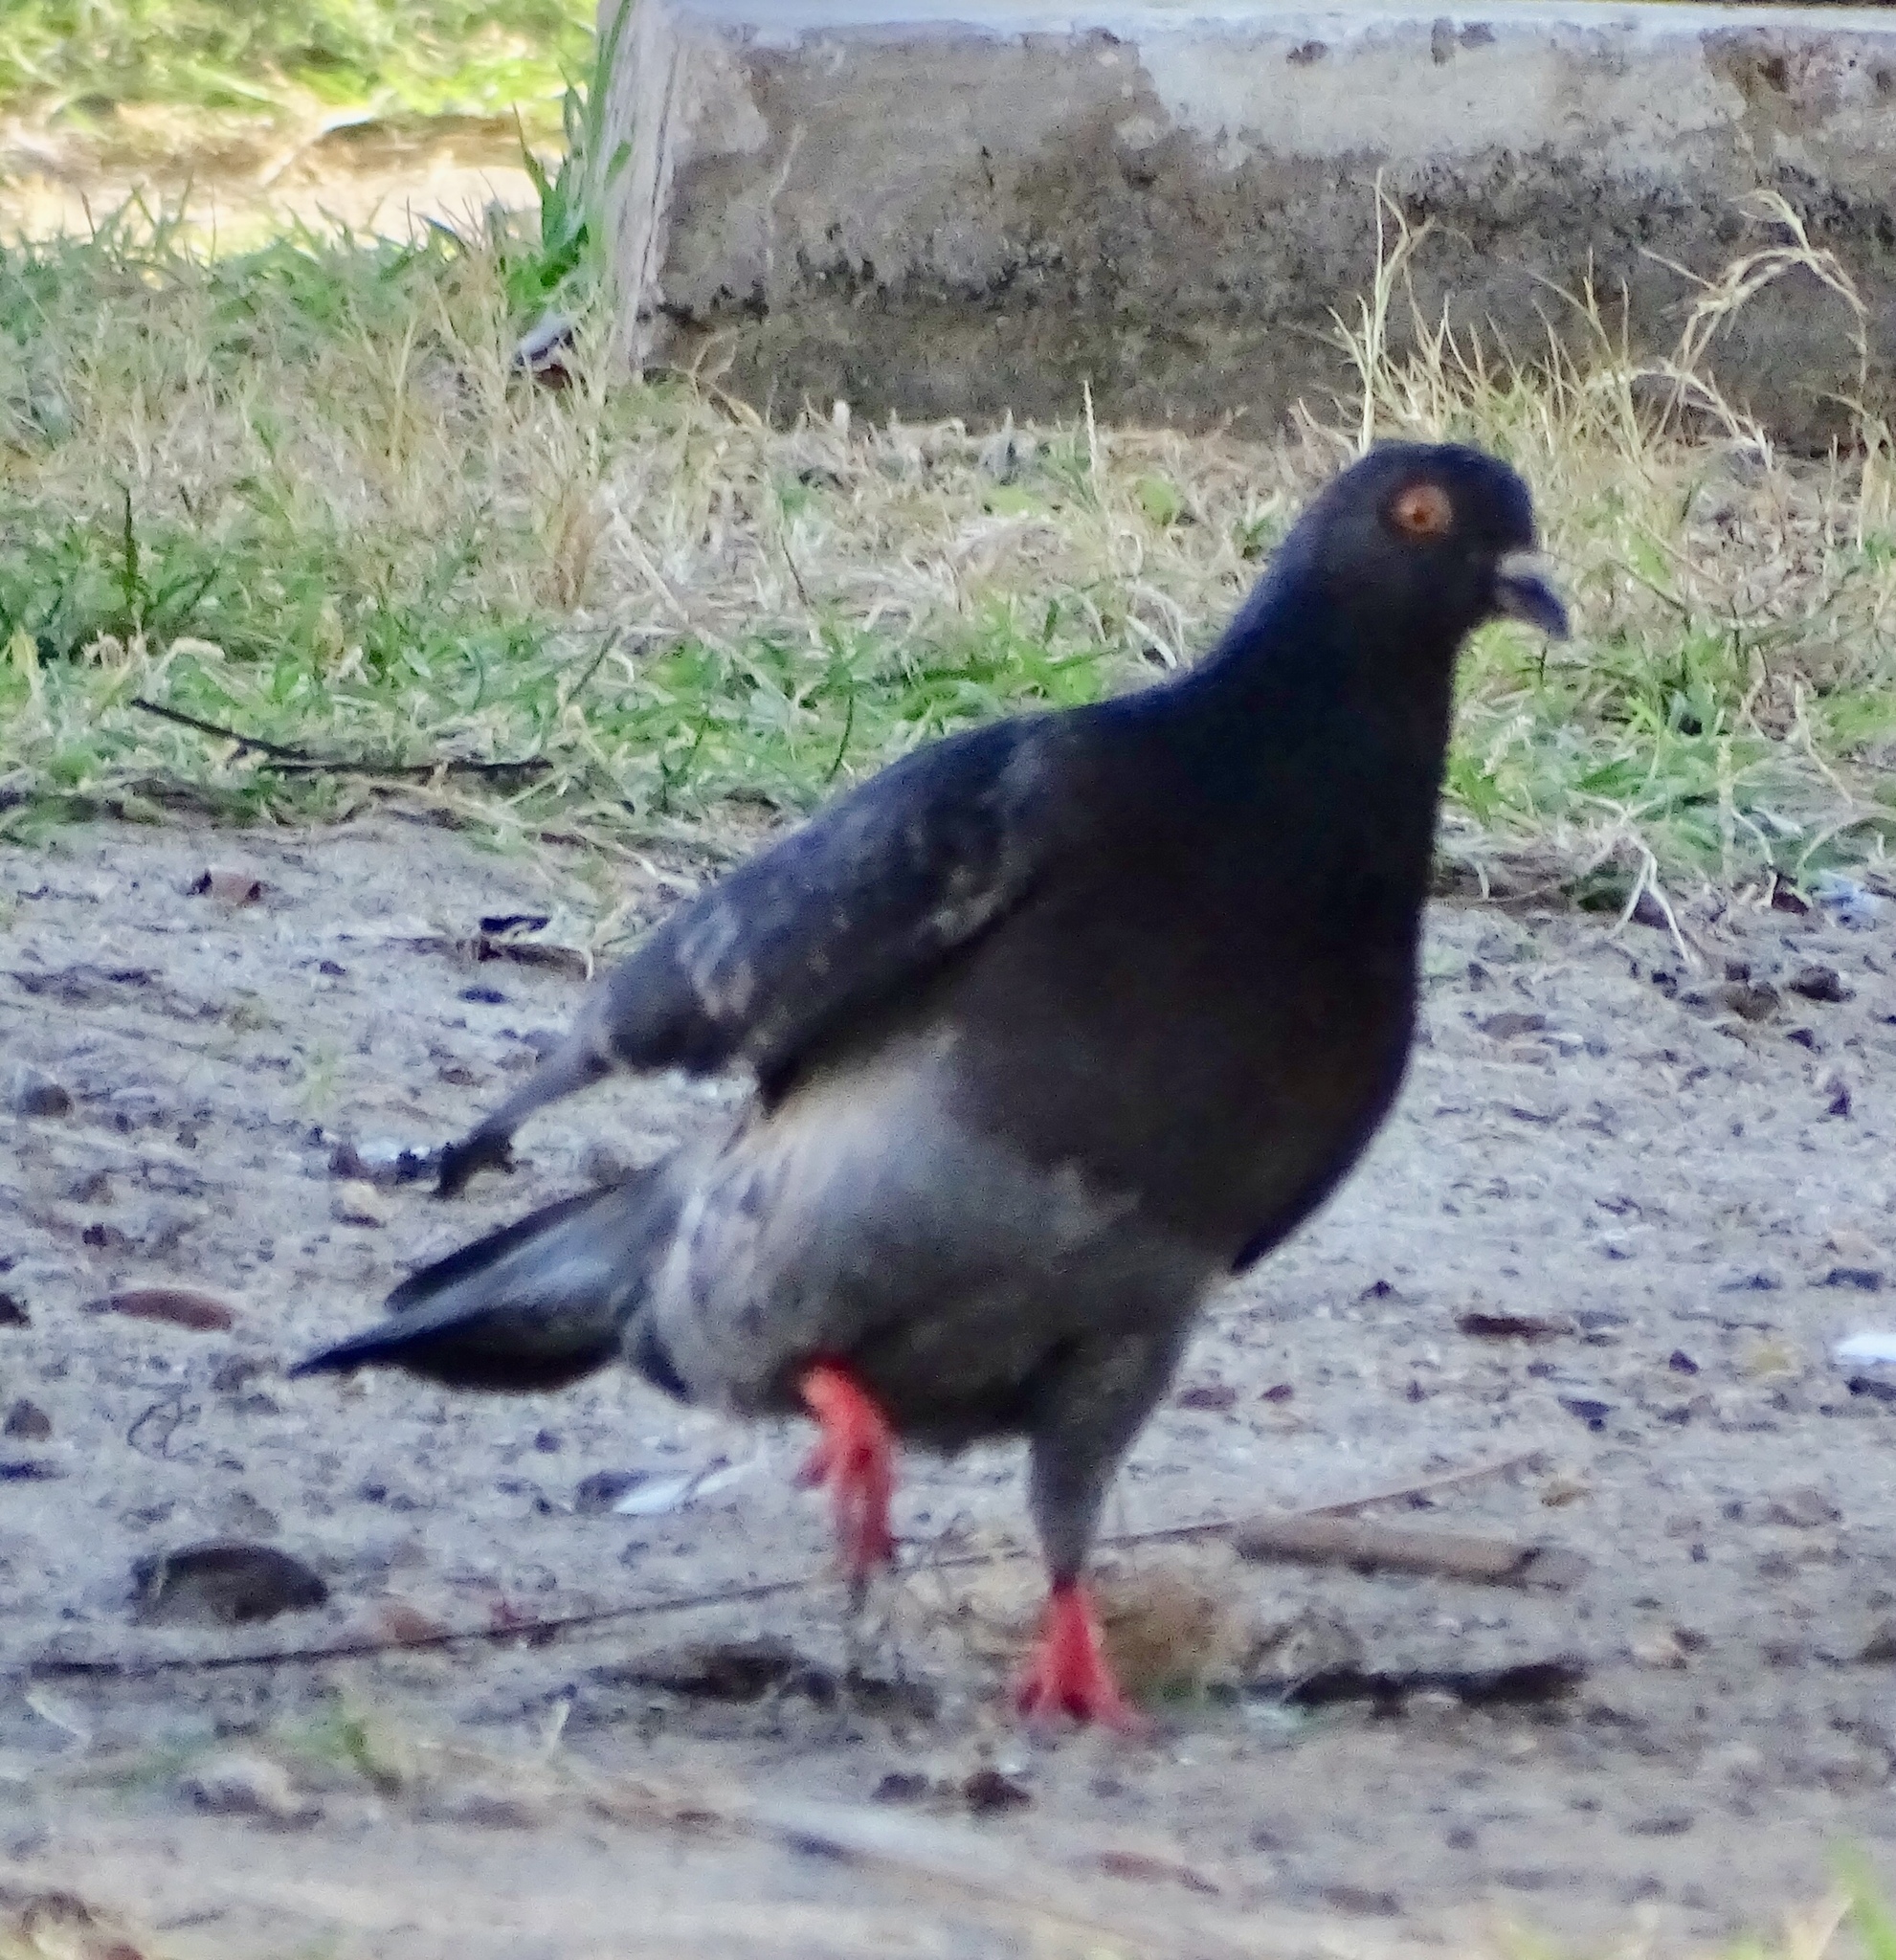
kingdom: Animalia
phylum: Chordata
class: Aves
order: Columbiformes
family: Columbidae
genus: Columba
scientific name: Columba livia
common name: Rock pigeon
